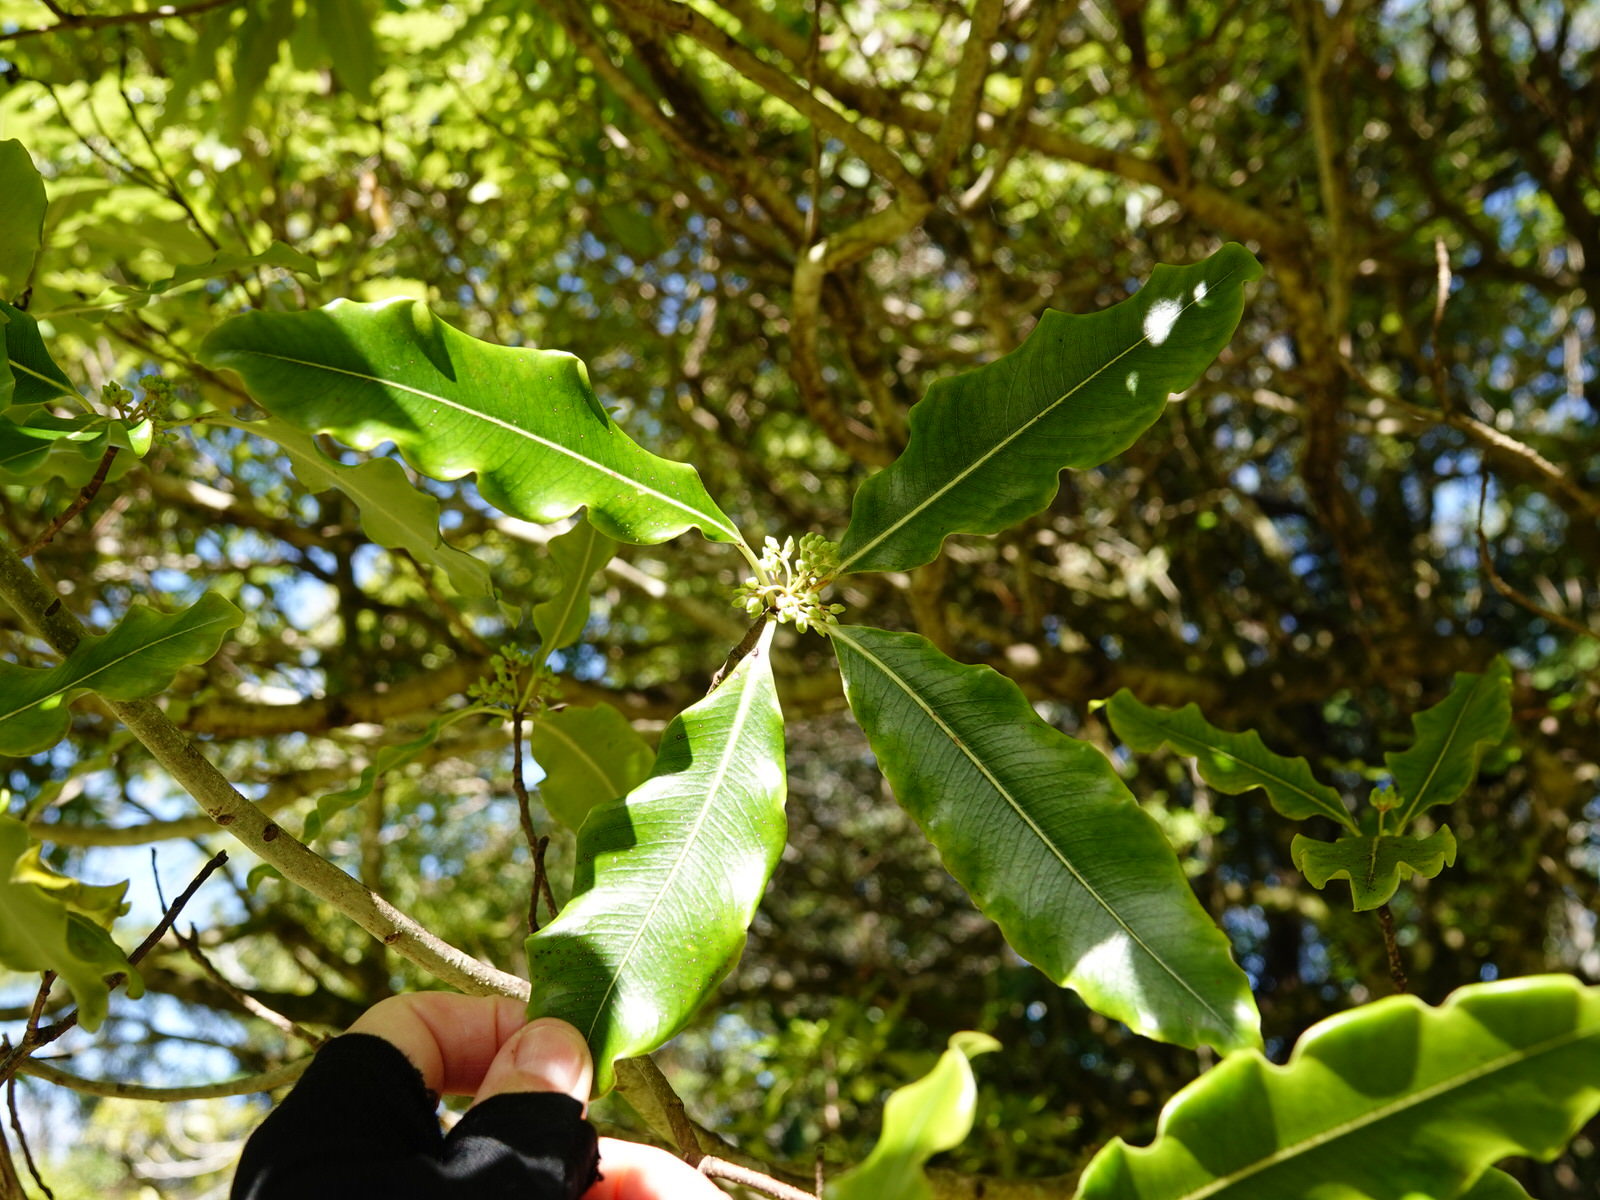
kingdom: Plantae
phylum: Tracheophyta
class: Magnoliopsida
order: Apiales
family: Pittosporaceae
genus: Pittosporum
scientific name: Pittosporum eugenioides
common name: Lemonwood
